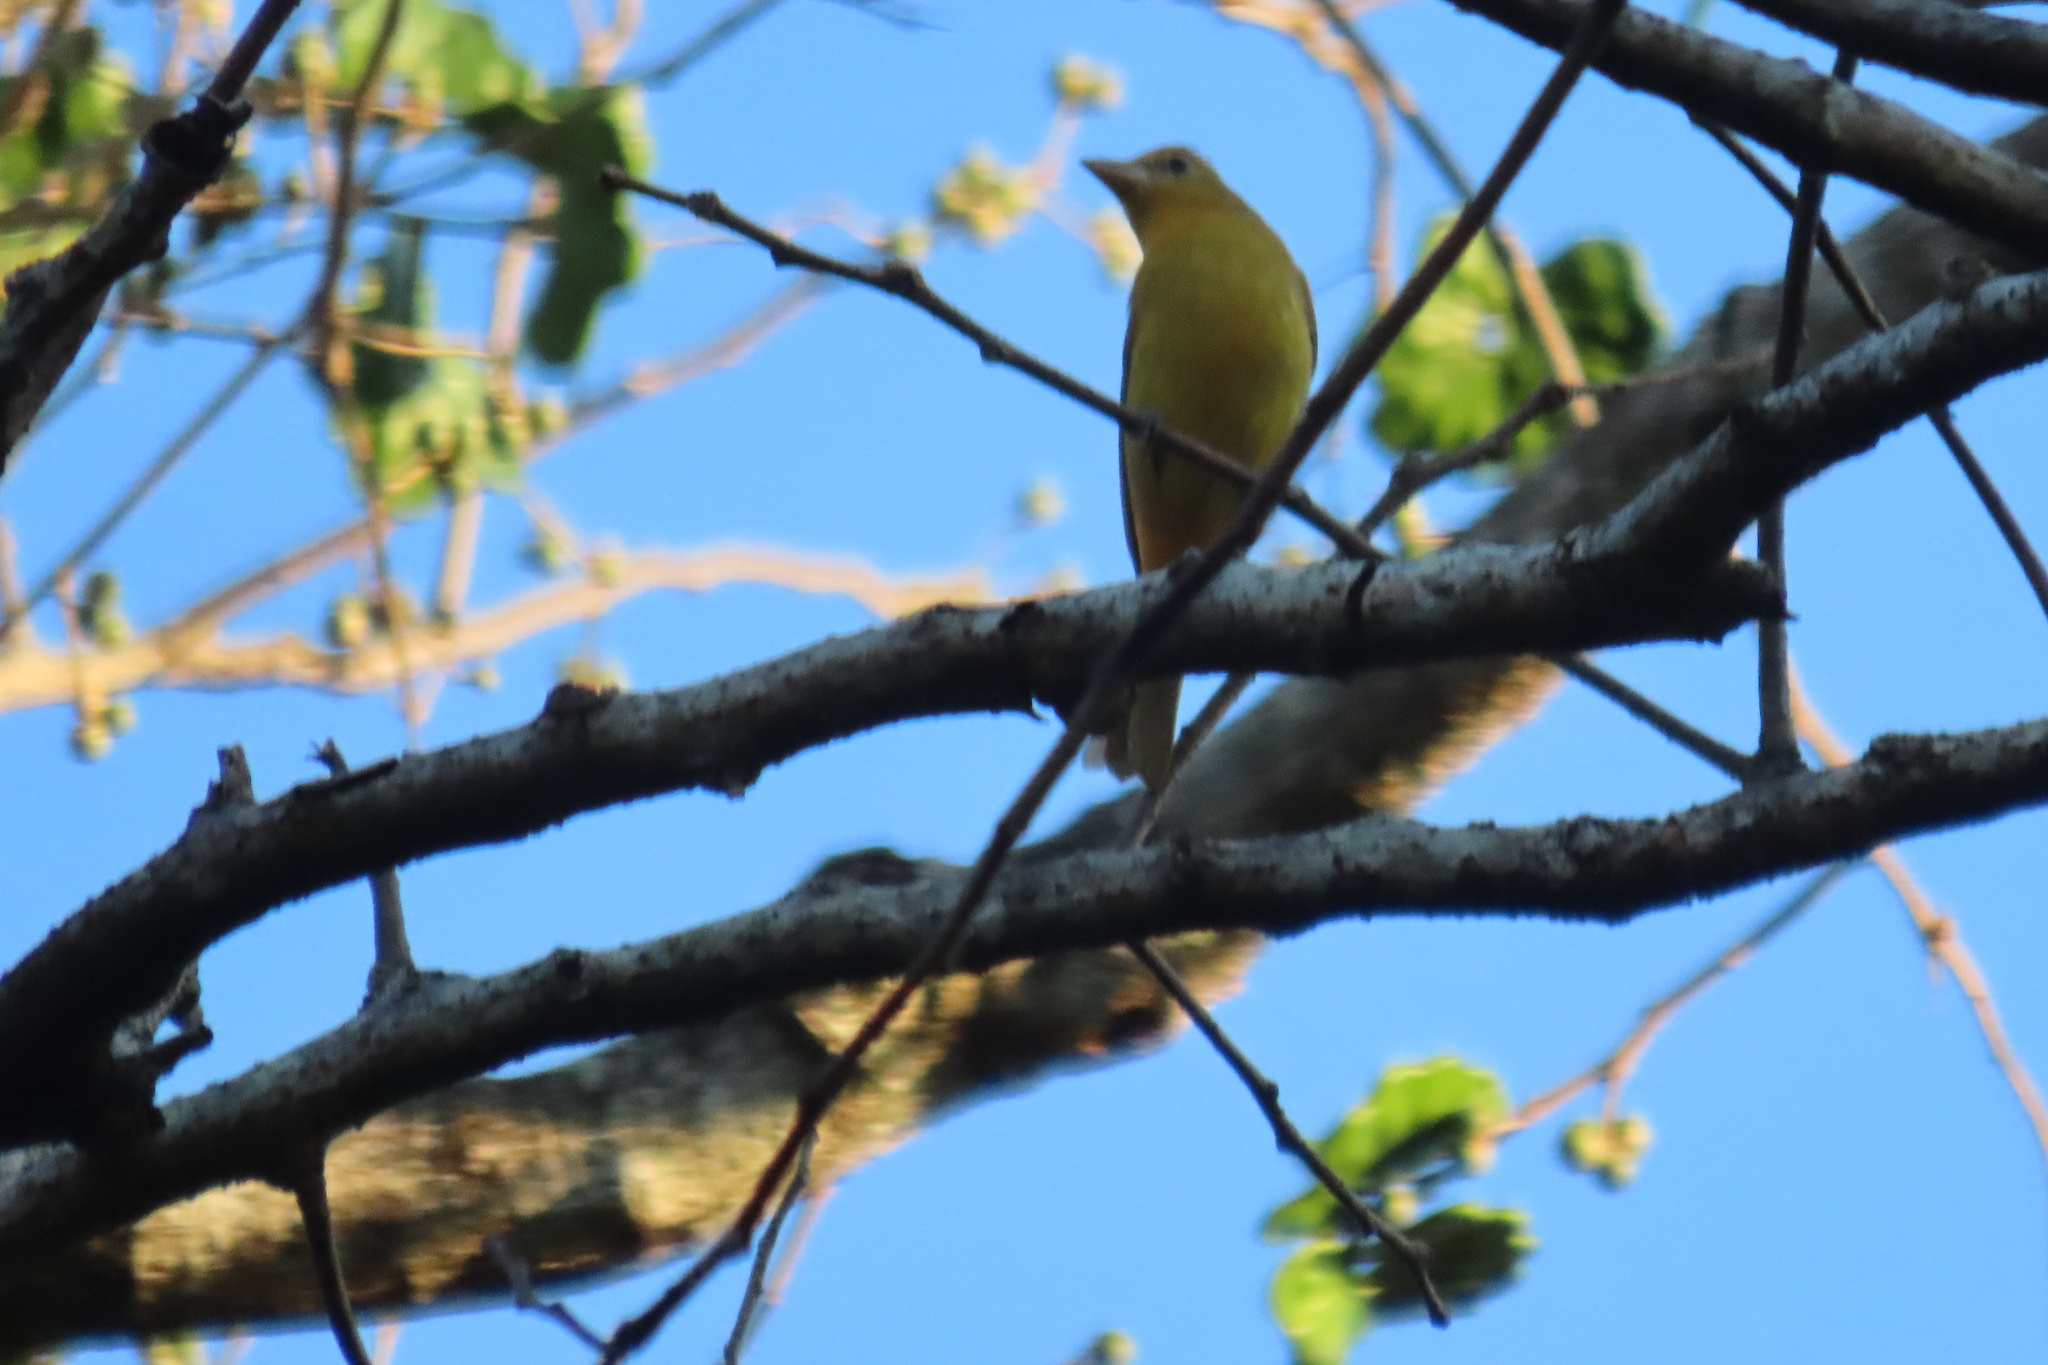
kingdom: Animalia
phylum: Chordata
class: Aves
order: Passeriformes
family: Cardinalidae
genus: Piranga
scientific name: Piranga rubra
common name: Summer tanager
